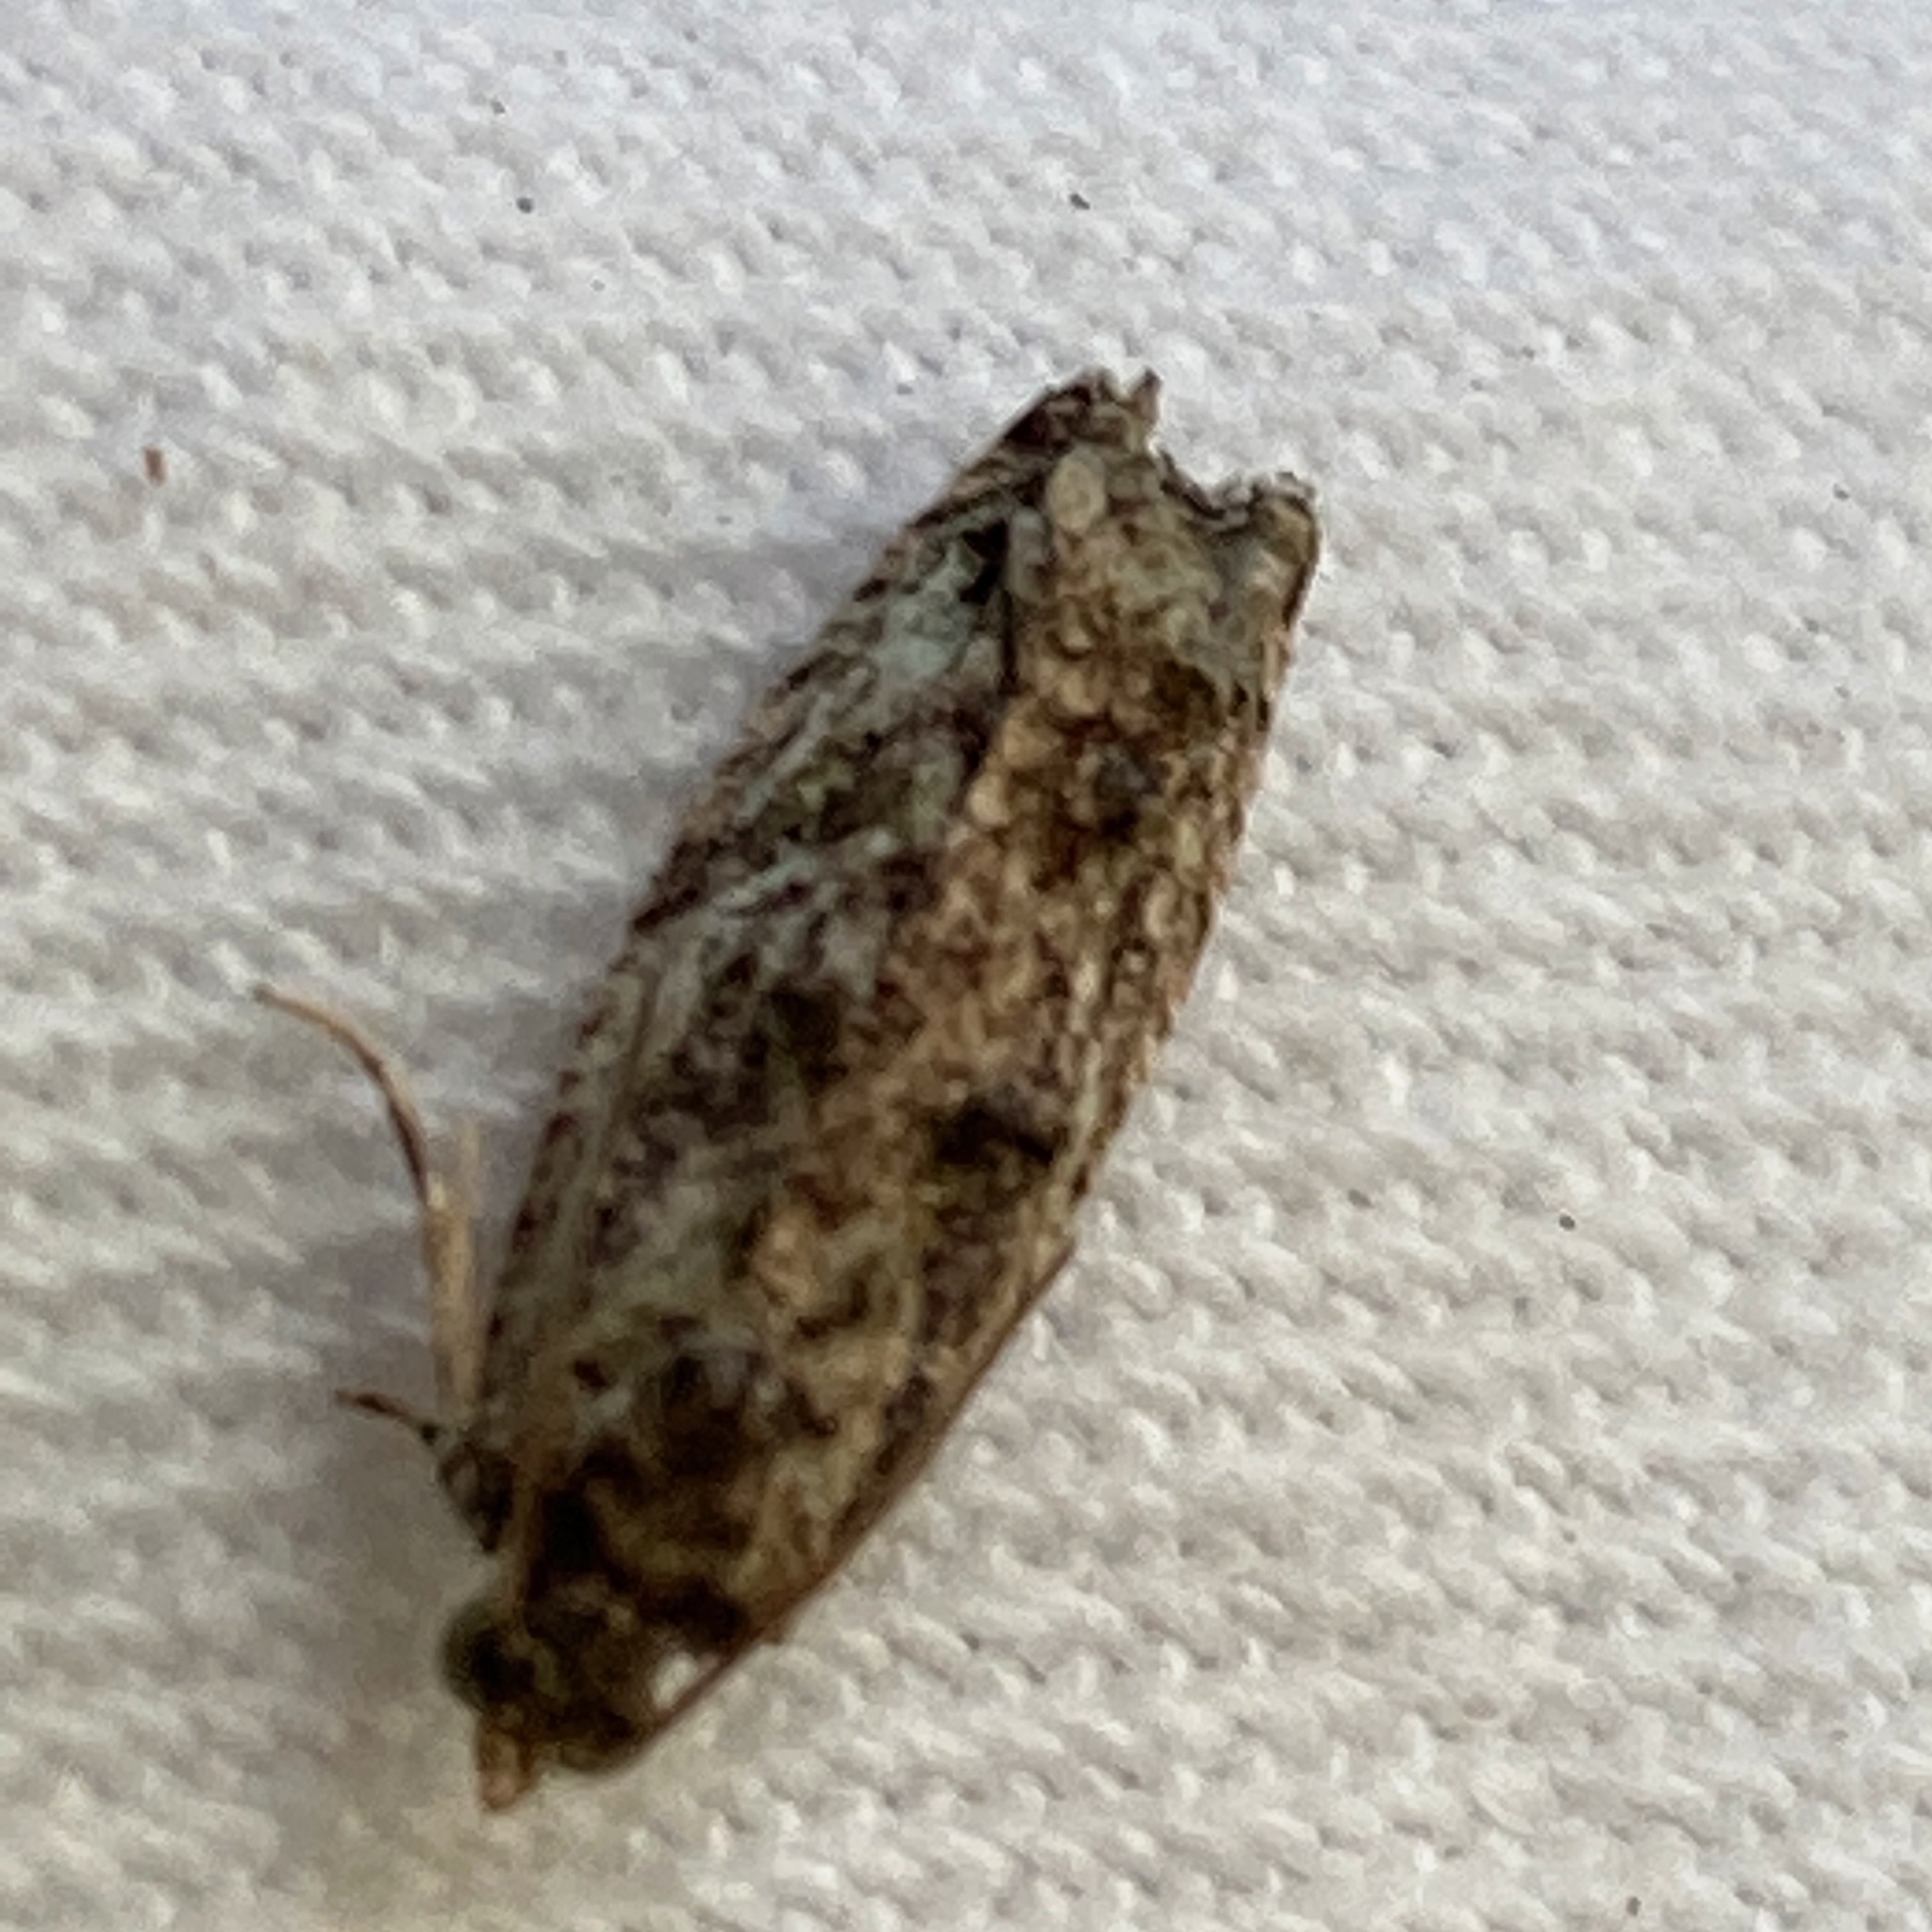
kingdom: Animalia
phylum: Arthropoda
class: Insecta
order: Lepidoptera
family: Tortricidae
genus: Proteoteras
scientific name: Proteoteras aesculana
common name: Maple twig borer moth
